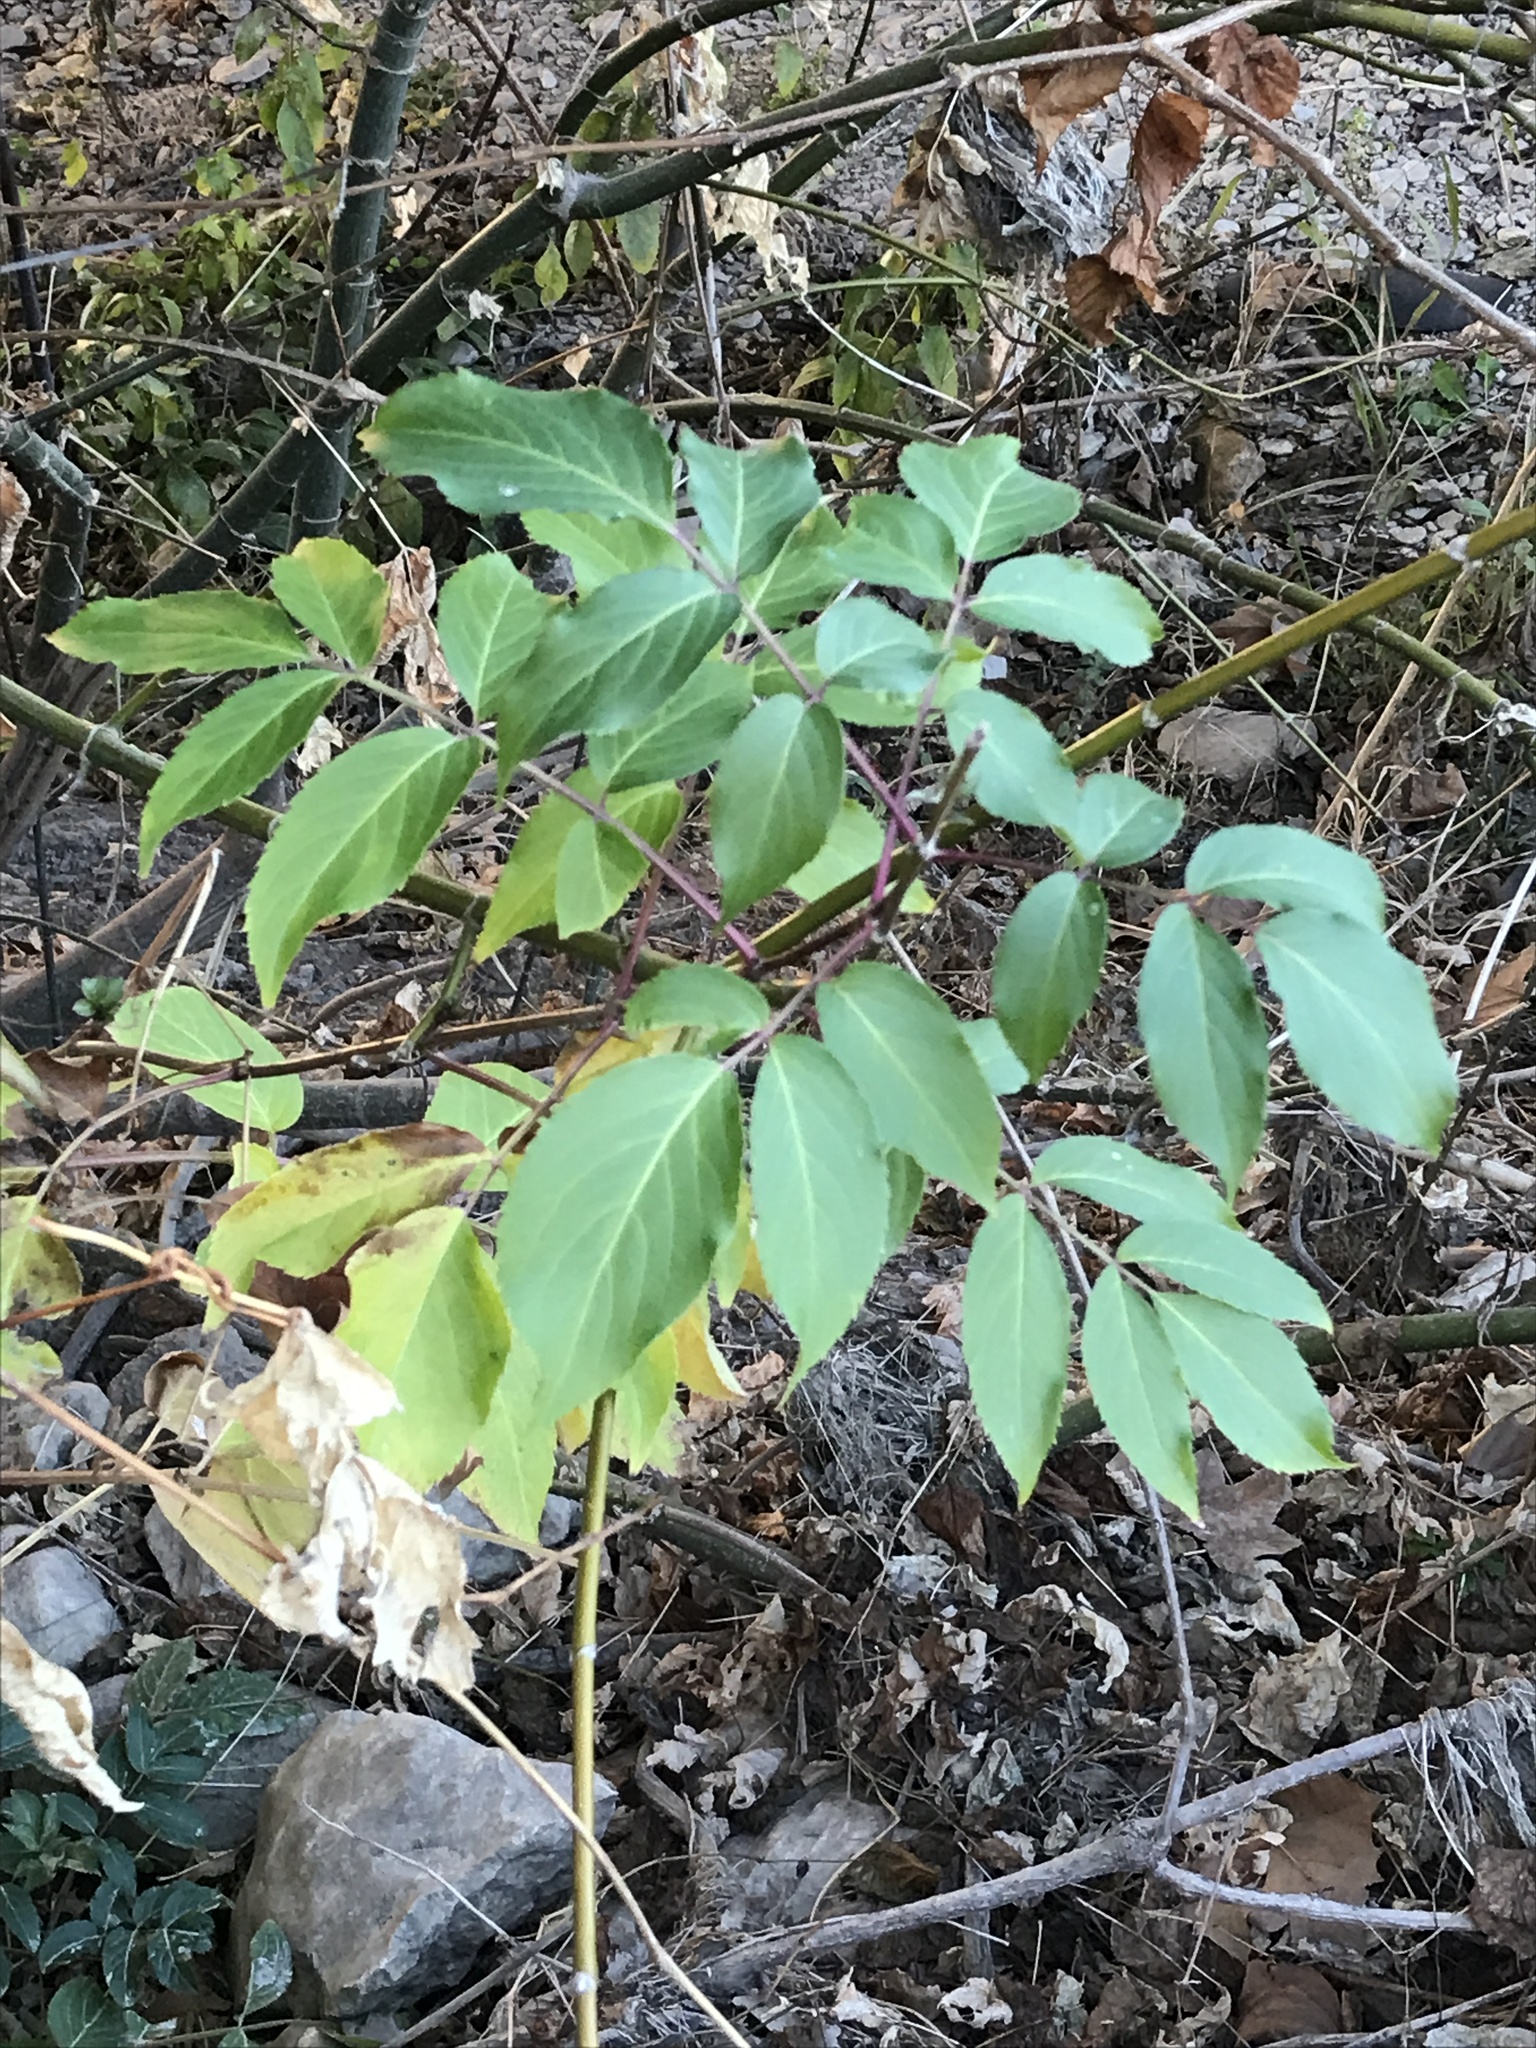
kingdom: Plantae
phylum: Tracheophyta
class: Magnoliopsida
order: Dipsacales
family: Viburnaceae
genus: Sambucus
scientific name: Sambucus canadensis
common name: American elder
